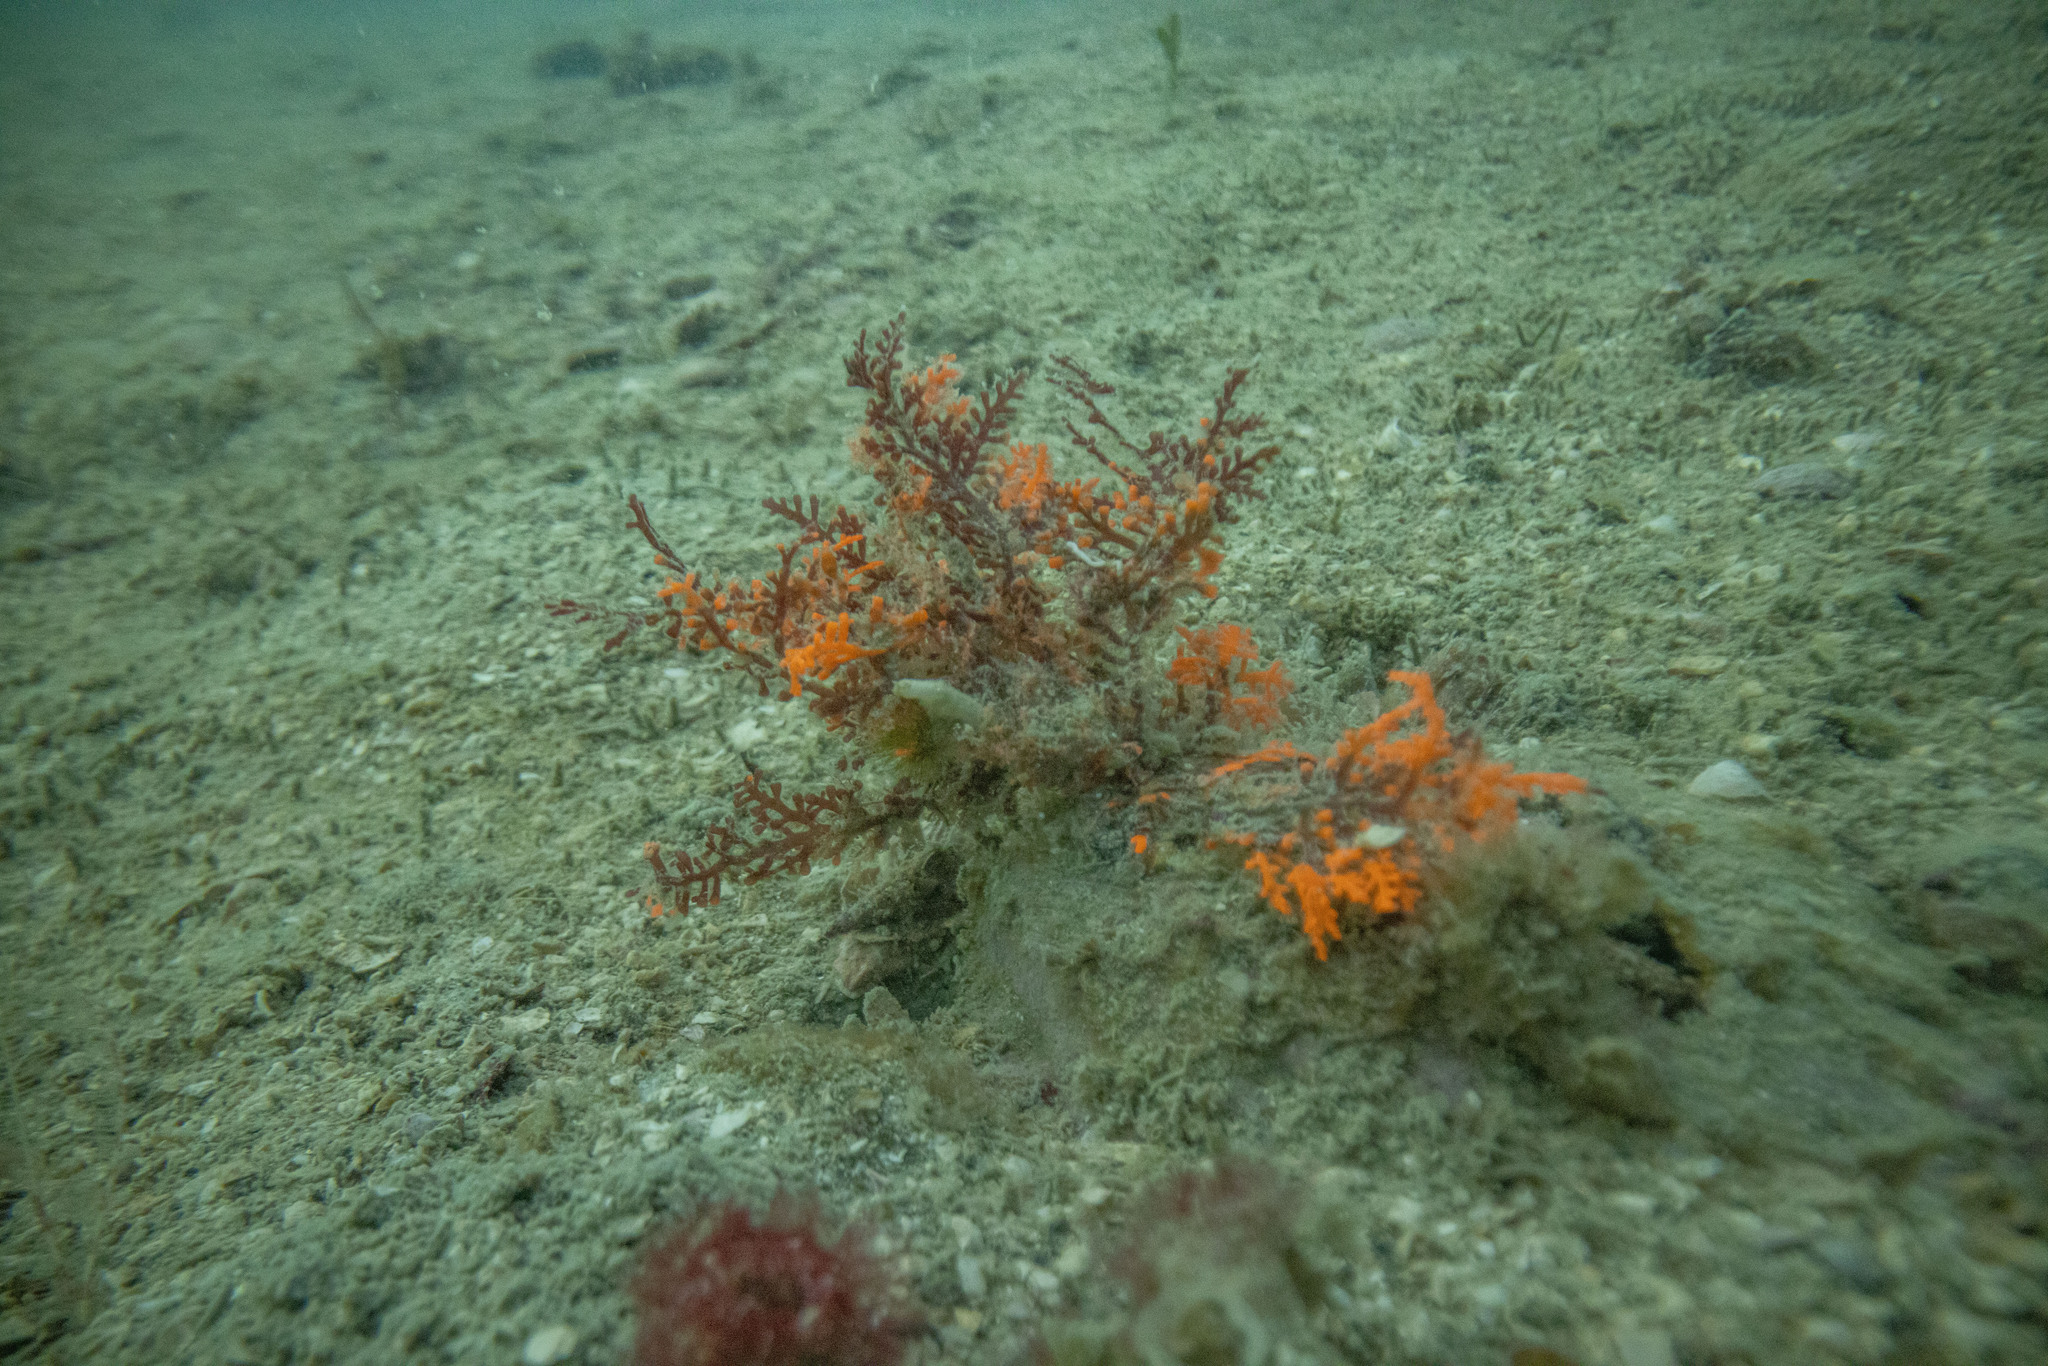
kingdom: Plantae
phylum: Rhodophyta
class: Florideophyceae
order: Ceramiales
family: Rhodomelaceae
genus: Chondria
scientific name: Chondria macrocarpa
